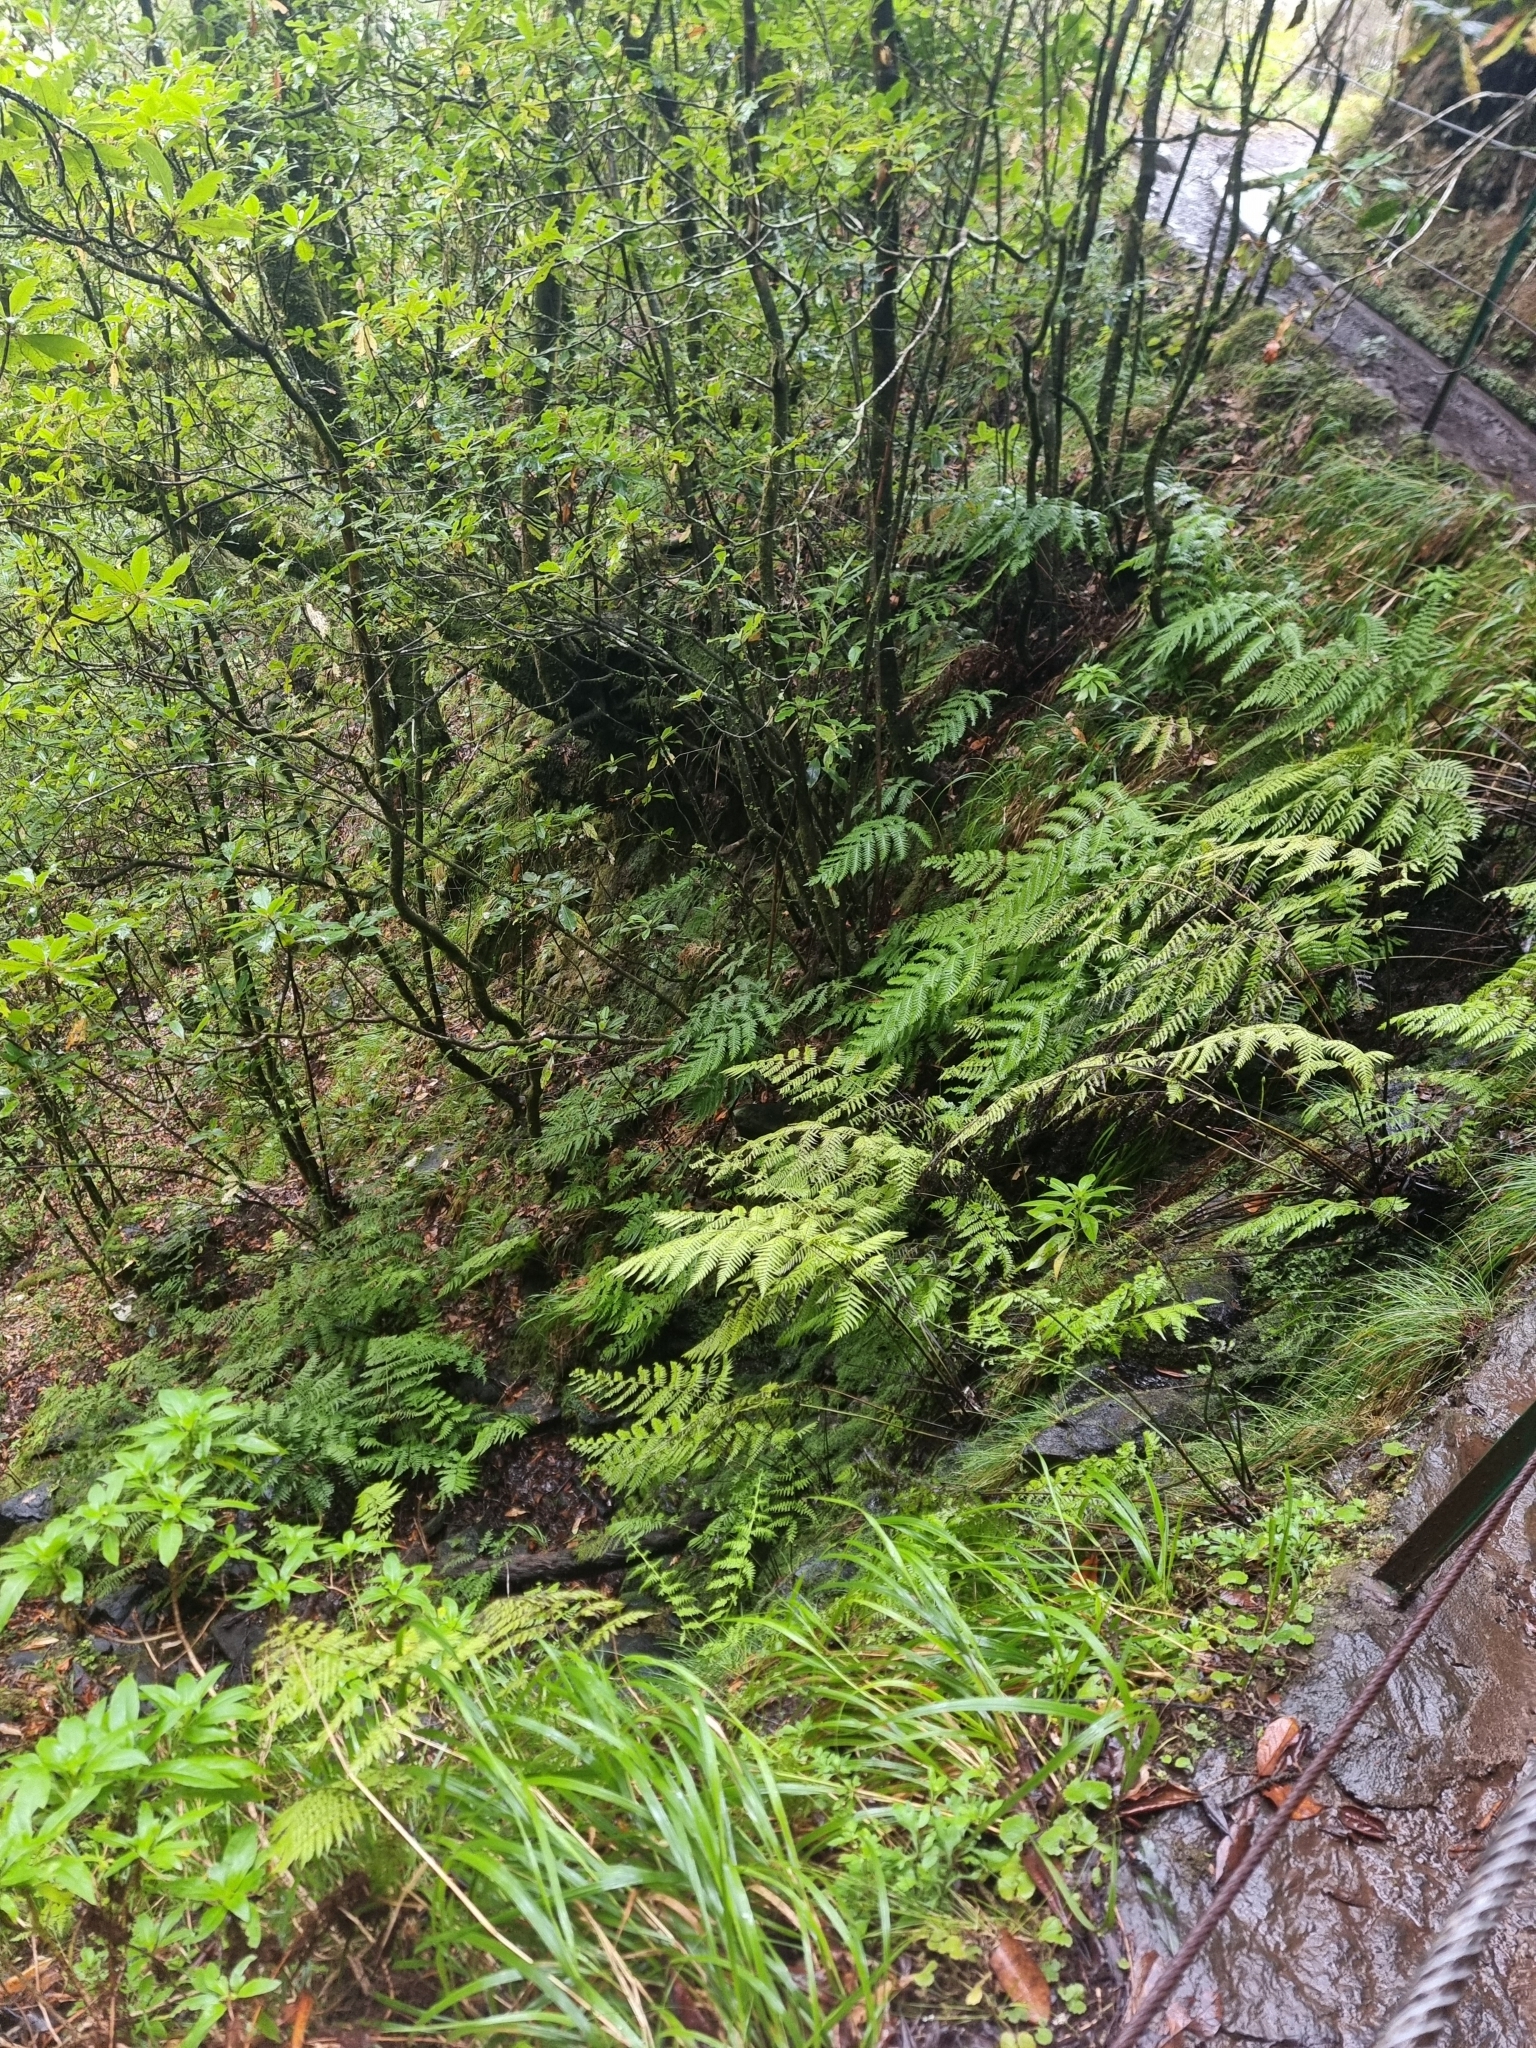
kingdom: Plantae
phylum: Tracheophyta
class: Polypodiopsida
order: Polypodiales
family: Athyriaceae
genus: Diplazium
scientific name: Diplazium caudatum
